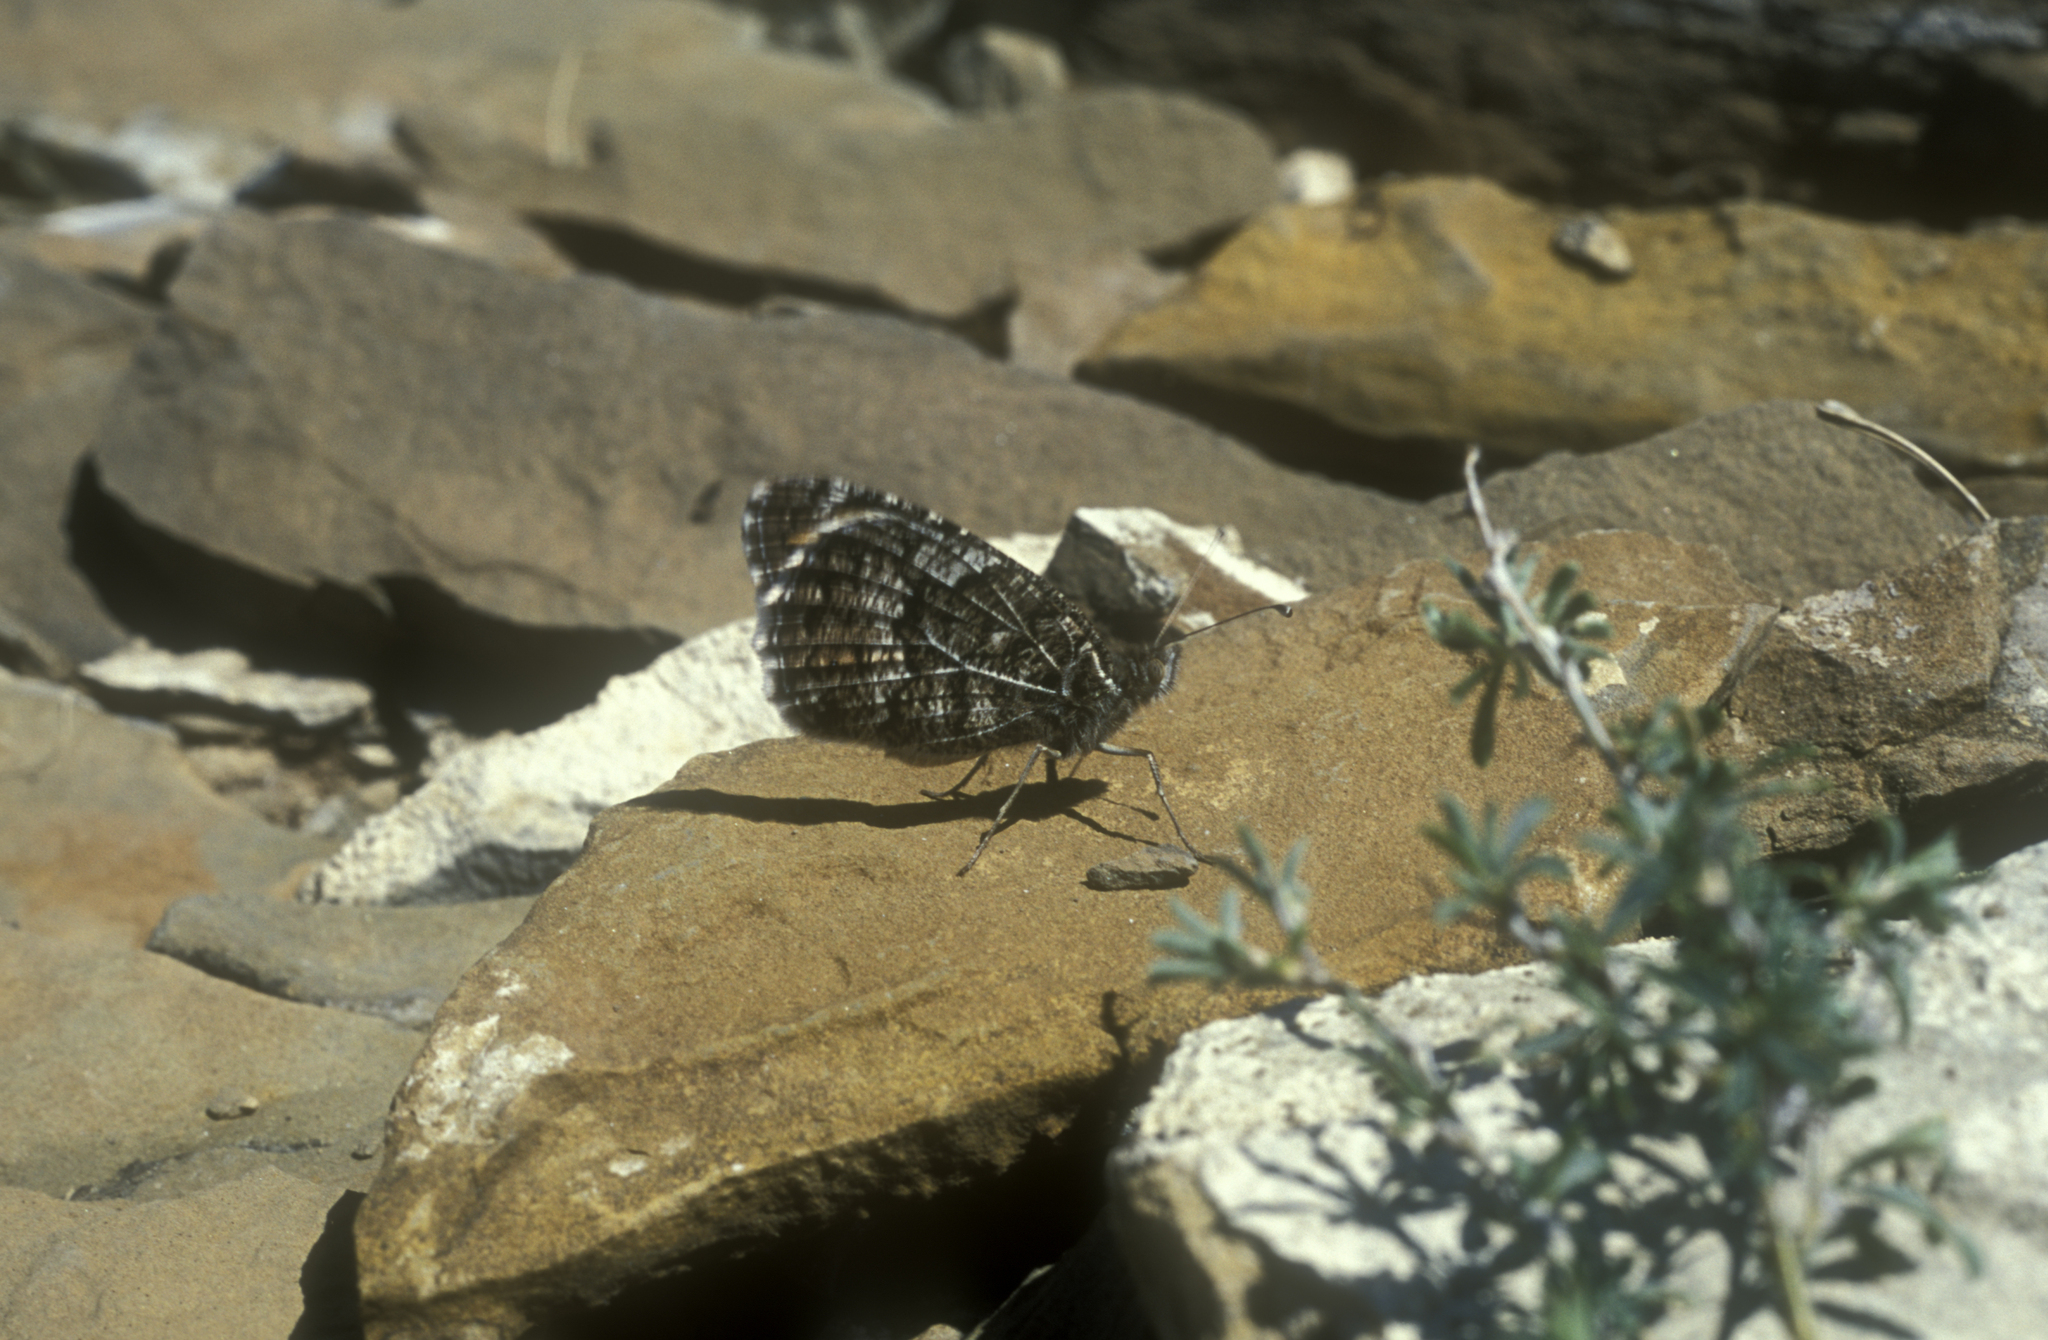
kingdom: Animalia
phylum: Arthropoda
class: Insecta
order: Lepidoptera
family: Nymphalidae
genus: Pseudochazara
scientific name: Pseudochazara hippolyte
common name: Nevada grayling
